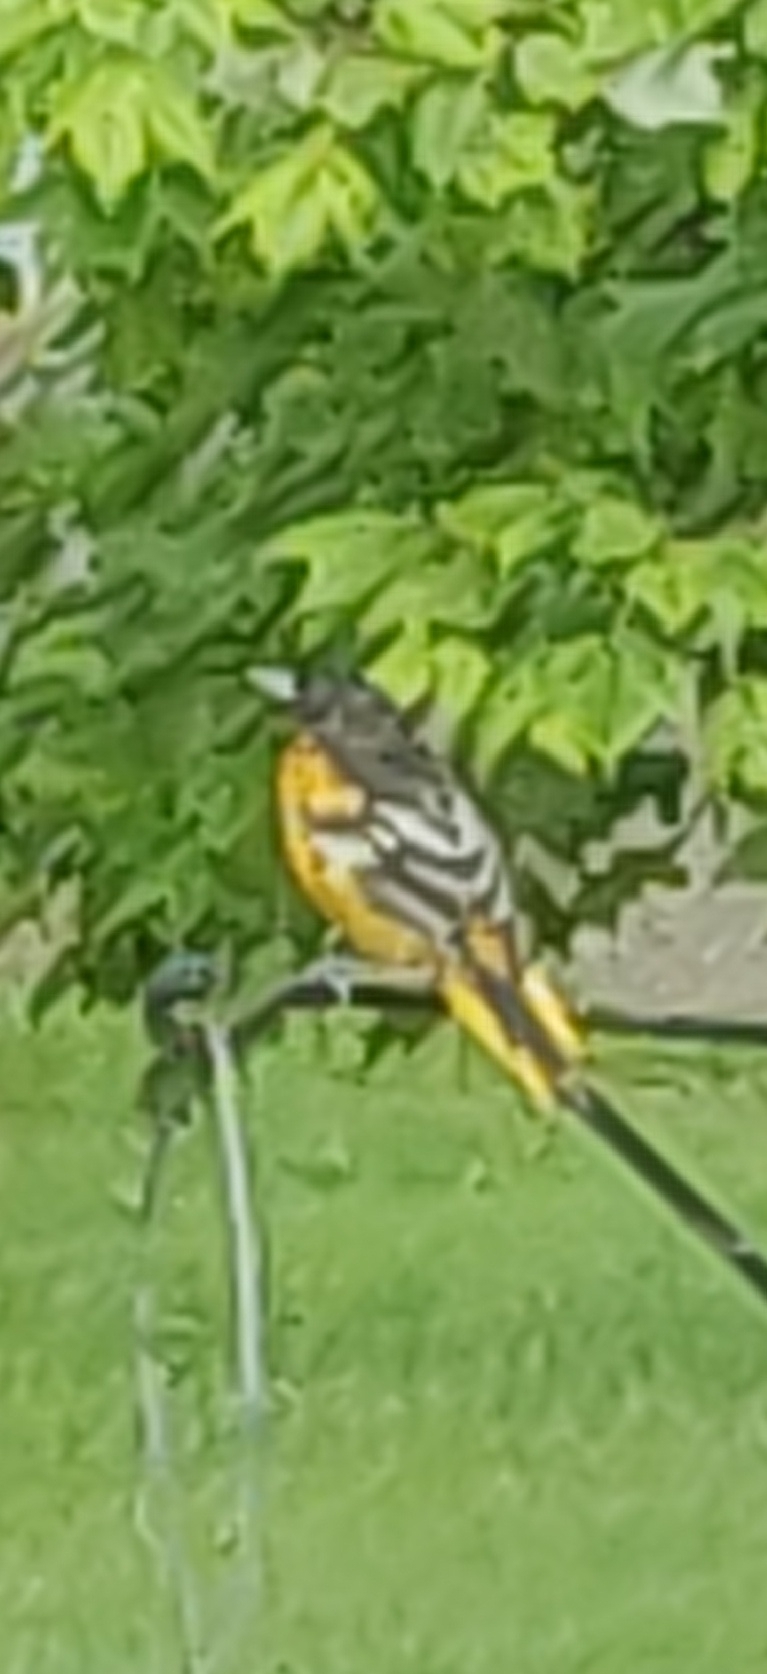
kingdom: Animalia
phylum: Chordata
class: Aves
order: Passeriformes
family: Icteridae
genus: Icterus
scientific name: Icterus galbula
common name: Baltimore oriole
